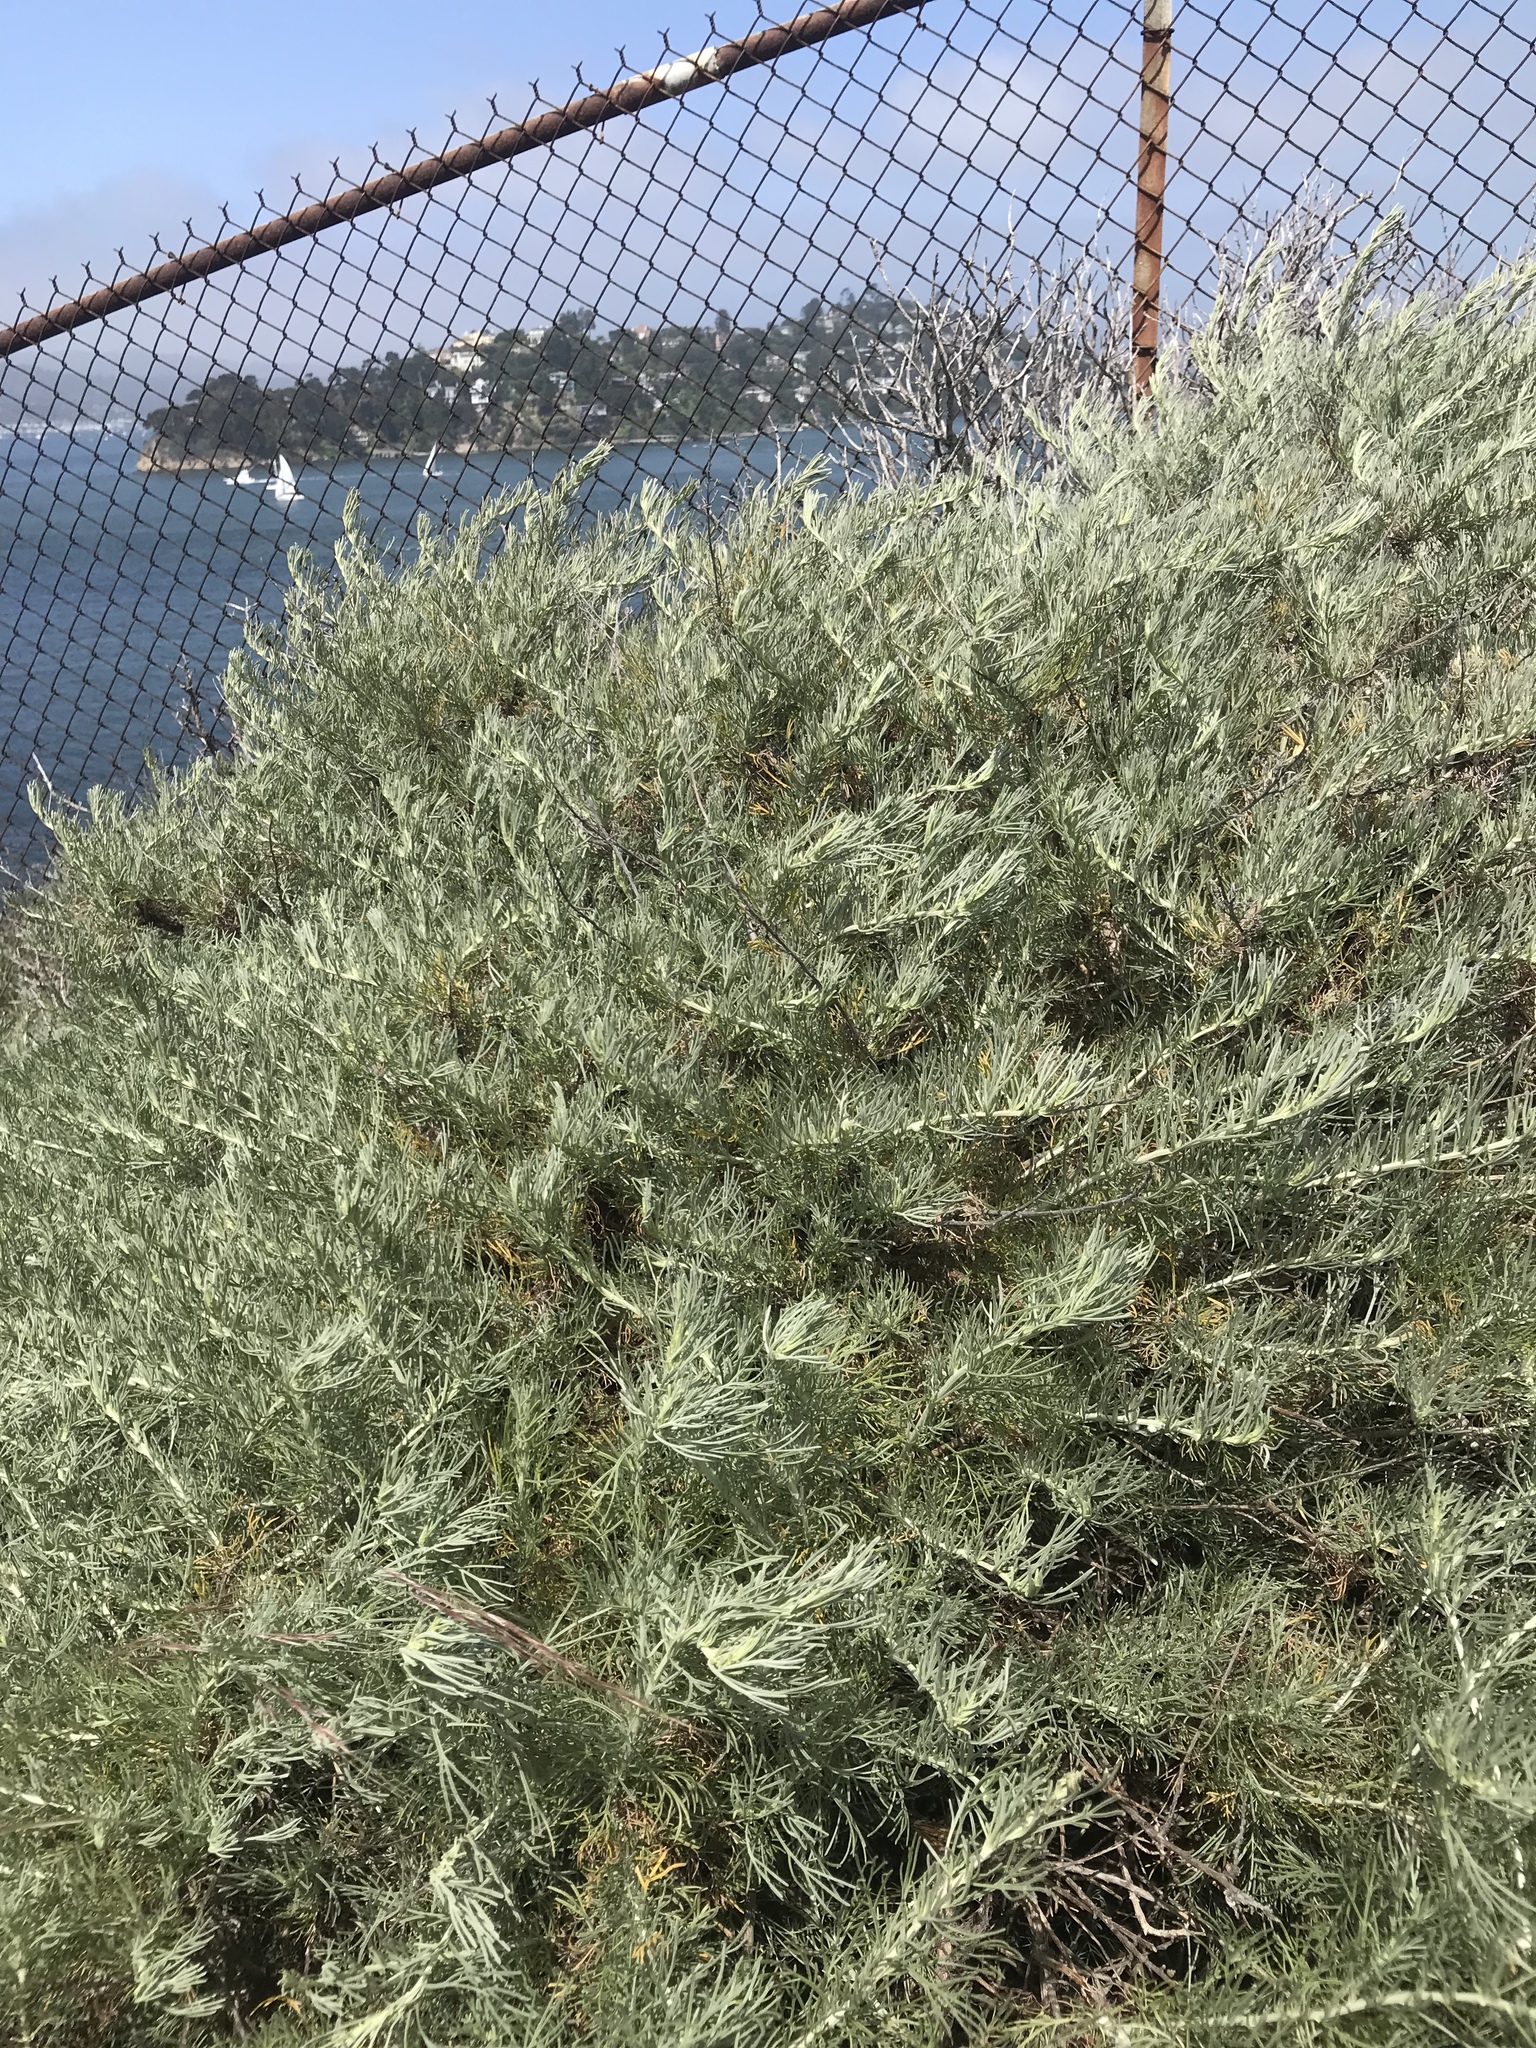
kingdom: Plantae
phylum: Tracheophyta
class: Magnoliopsida
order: Asterales
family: Asteraceae
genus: Artemisia
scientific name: Artemisia californica
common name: California sagebrush
